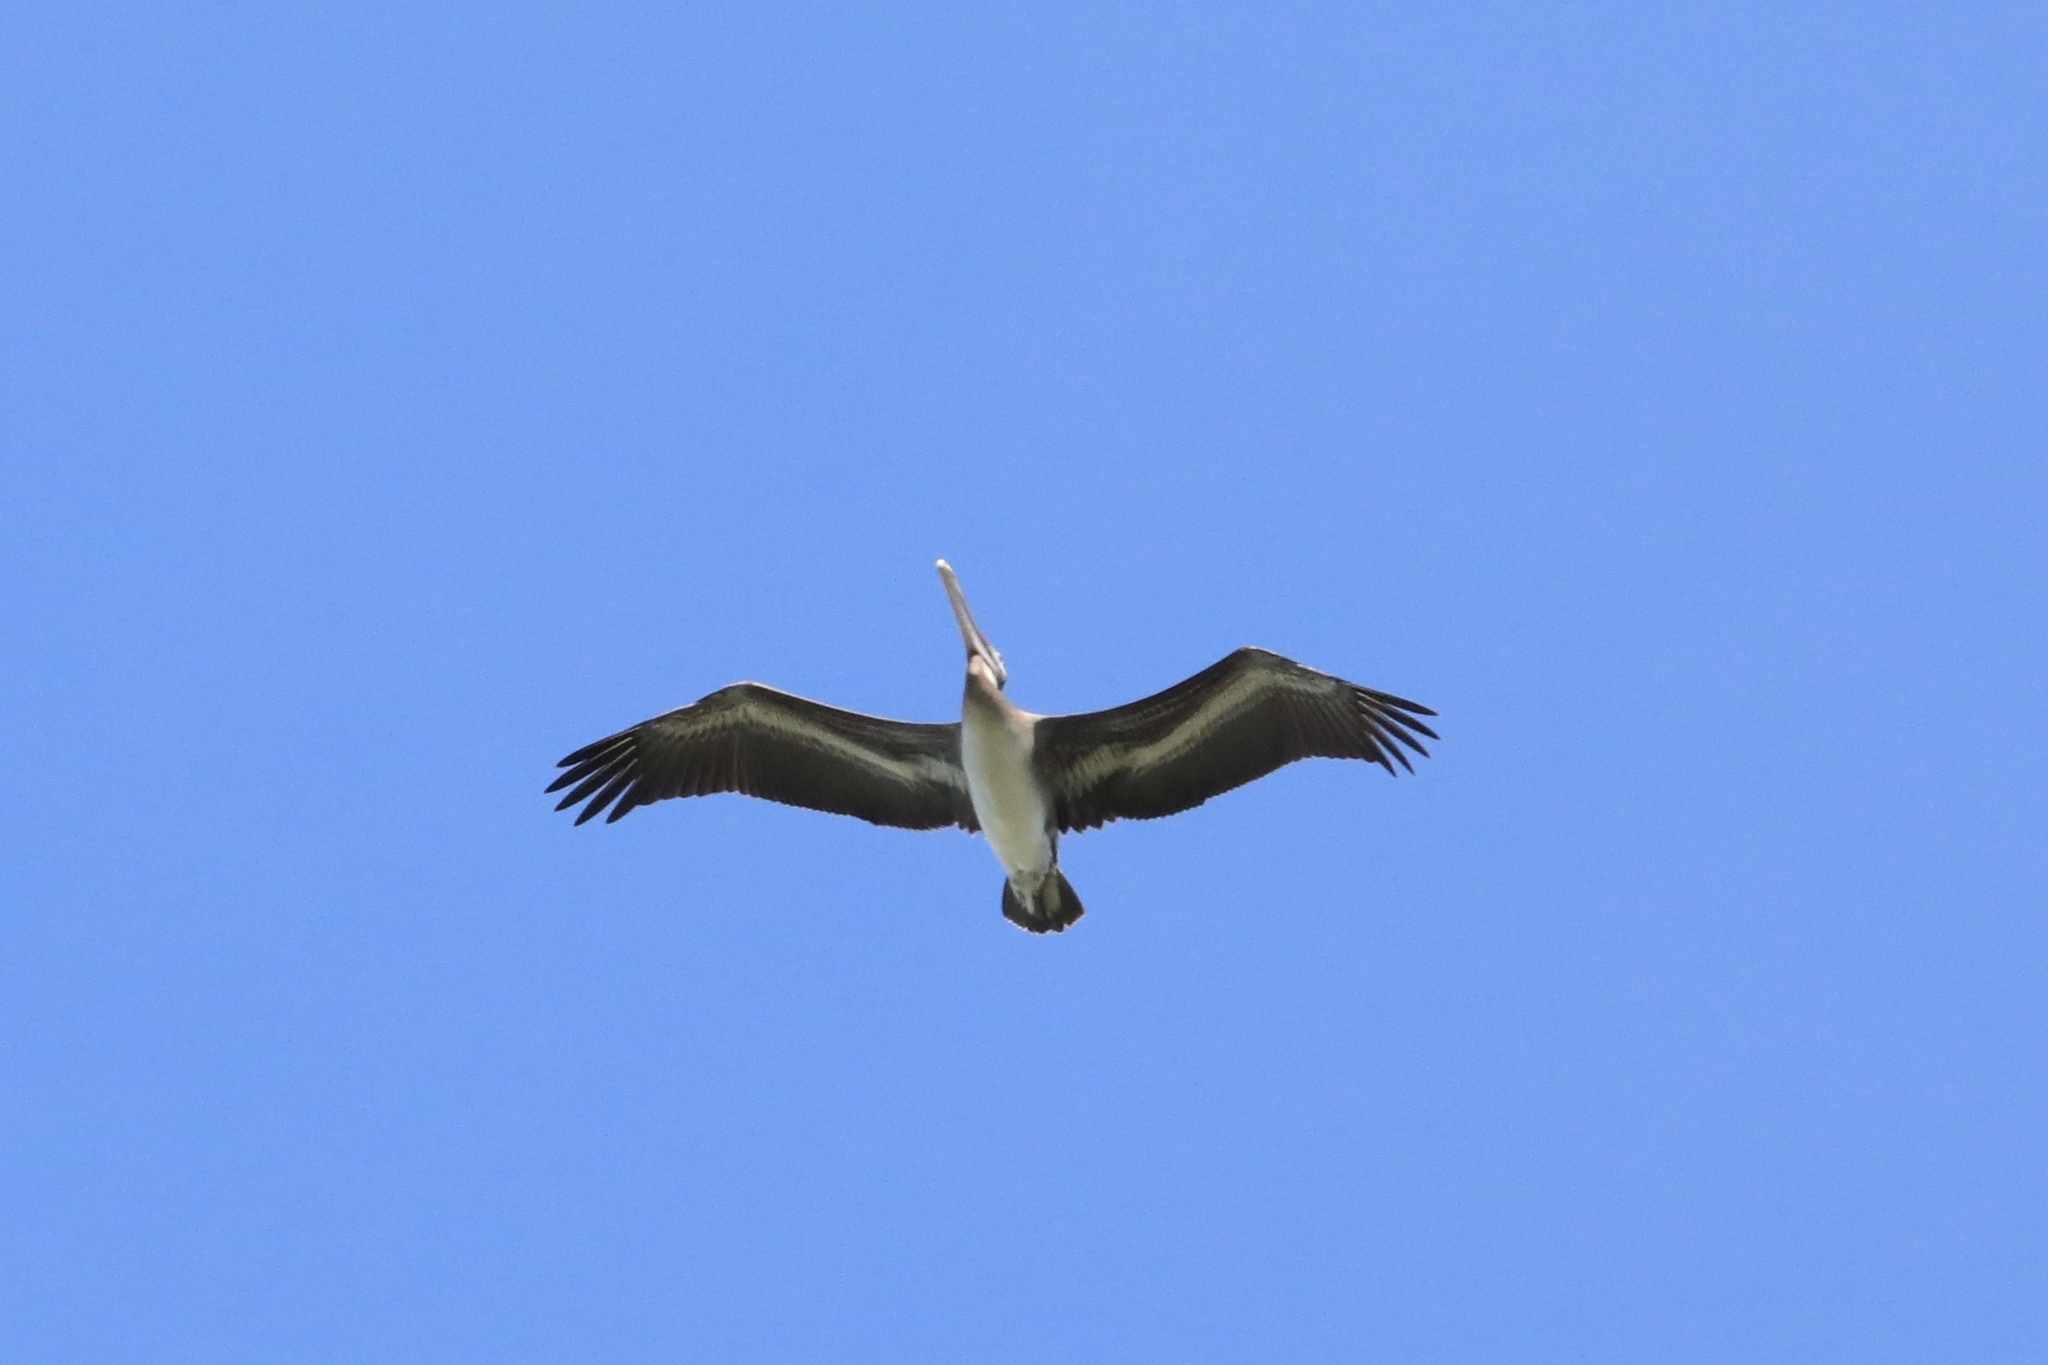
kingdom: Animalia
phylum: Chordata
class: Aves
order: Pelecaniformes
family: Pelecanidae
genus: Pelecanus
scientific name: Pelecanus occidentalis
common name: Brown pelican
